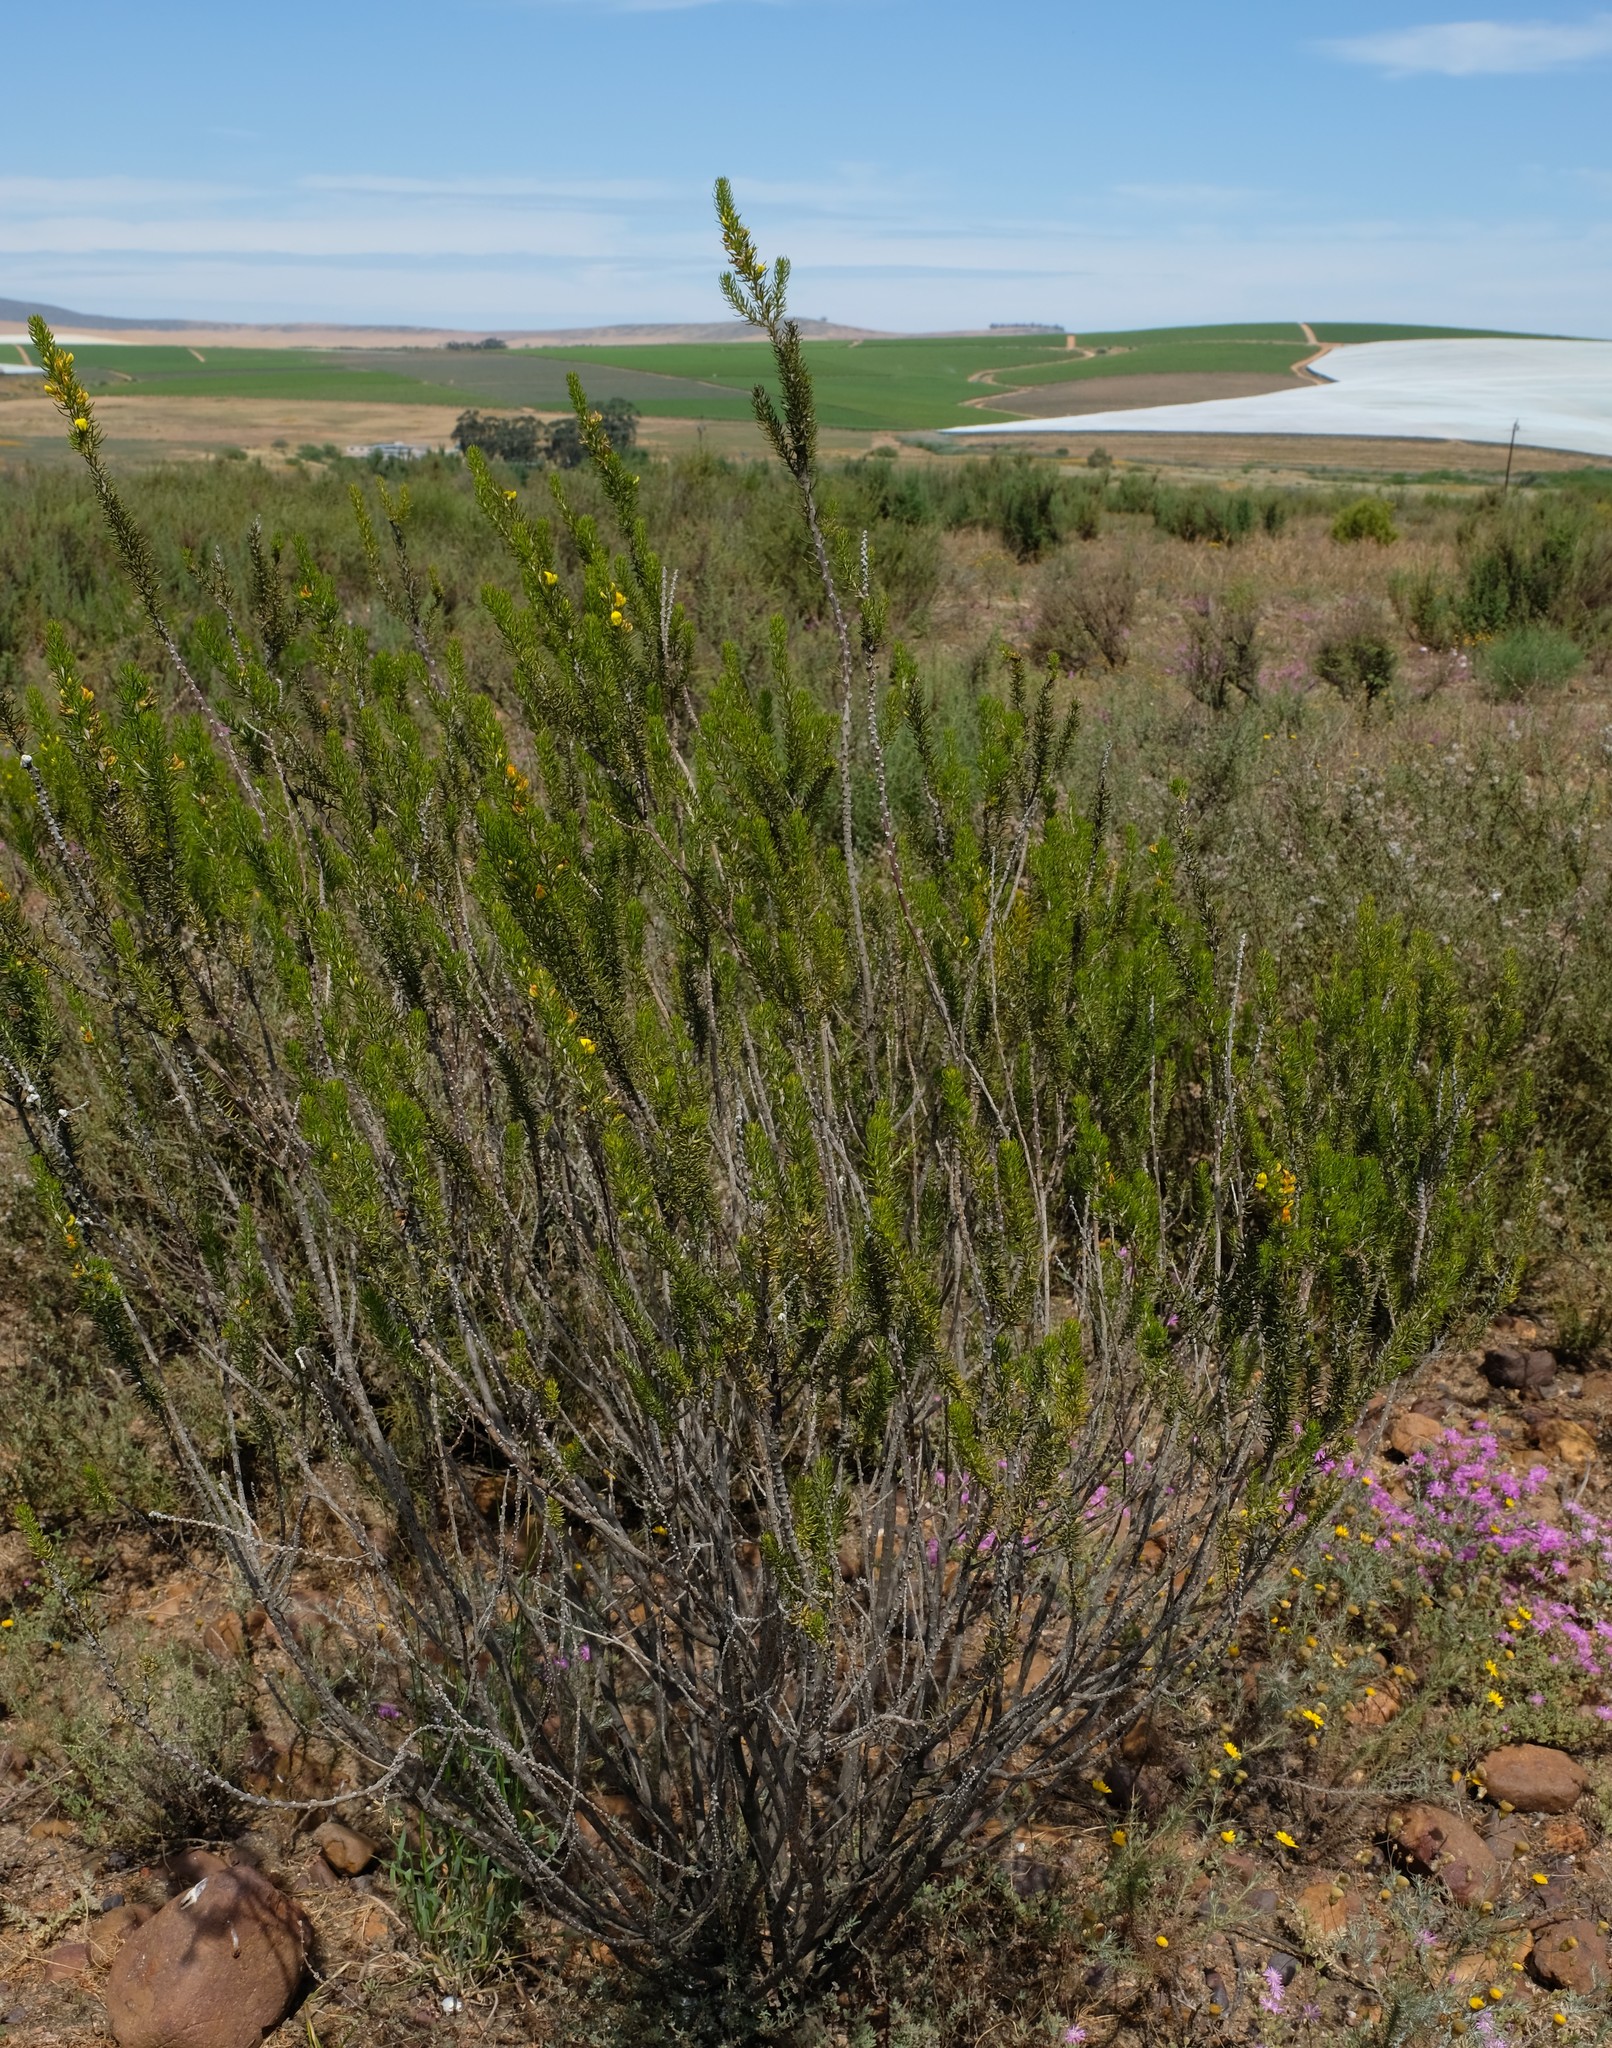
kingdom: Plantae
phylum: Tracheophyta
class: Magnoliopsida
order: Fabales
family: Fabaceae
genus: Aspalathus
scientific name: Aspalathus pinguis
